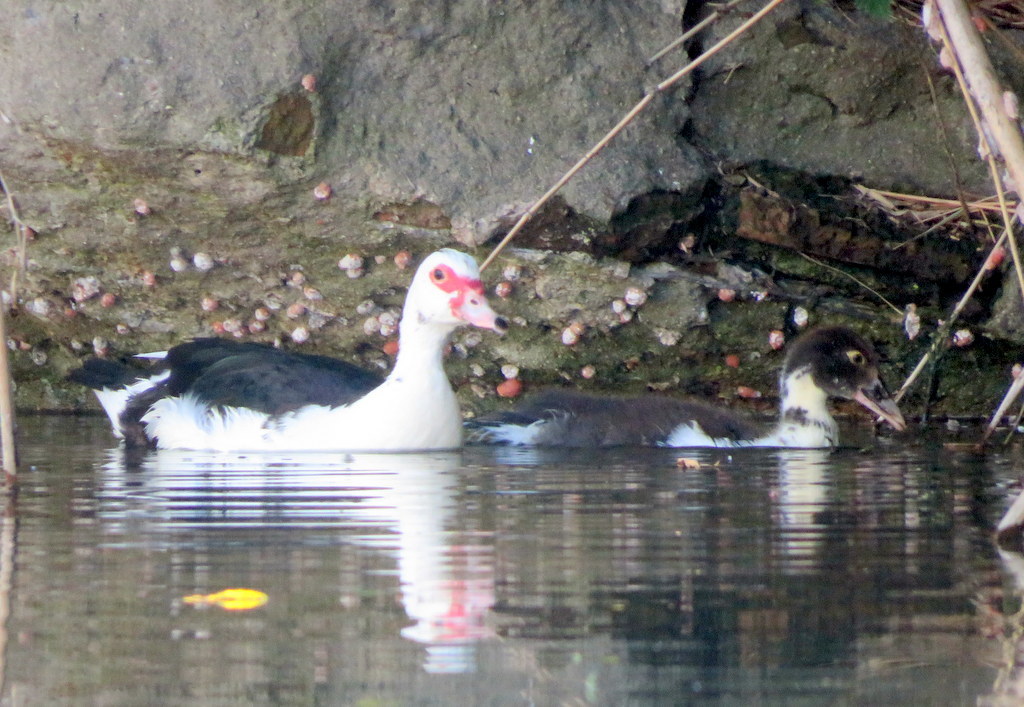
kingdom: Animalia
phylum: Chordata
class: Aves
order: Anseriformes
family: Anatidae
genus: Cairina
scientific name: Cairina moschata
